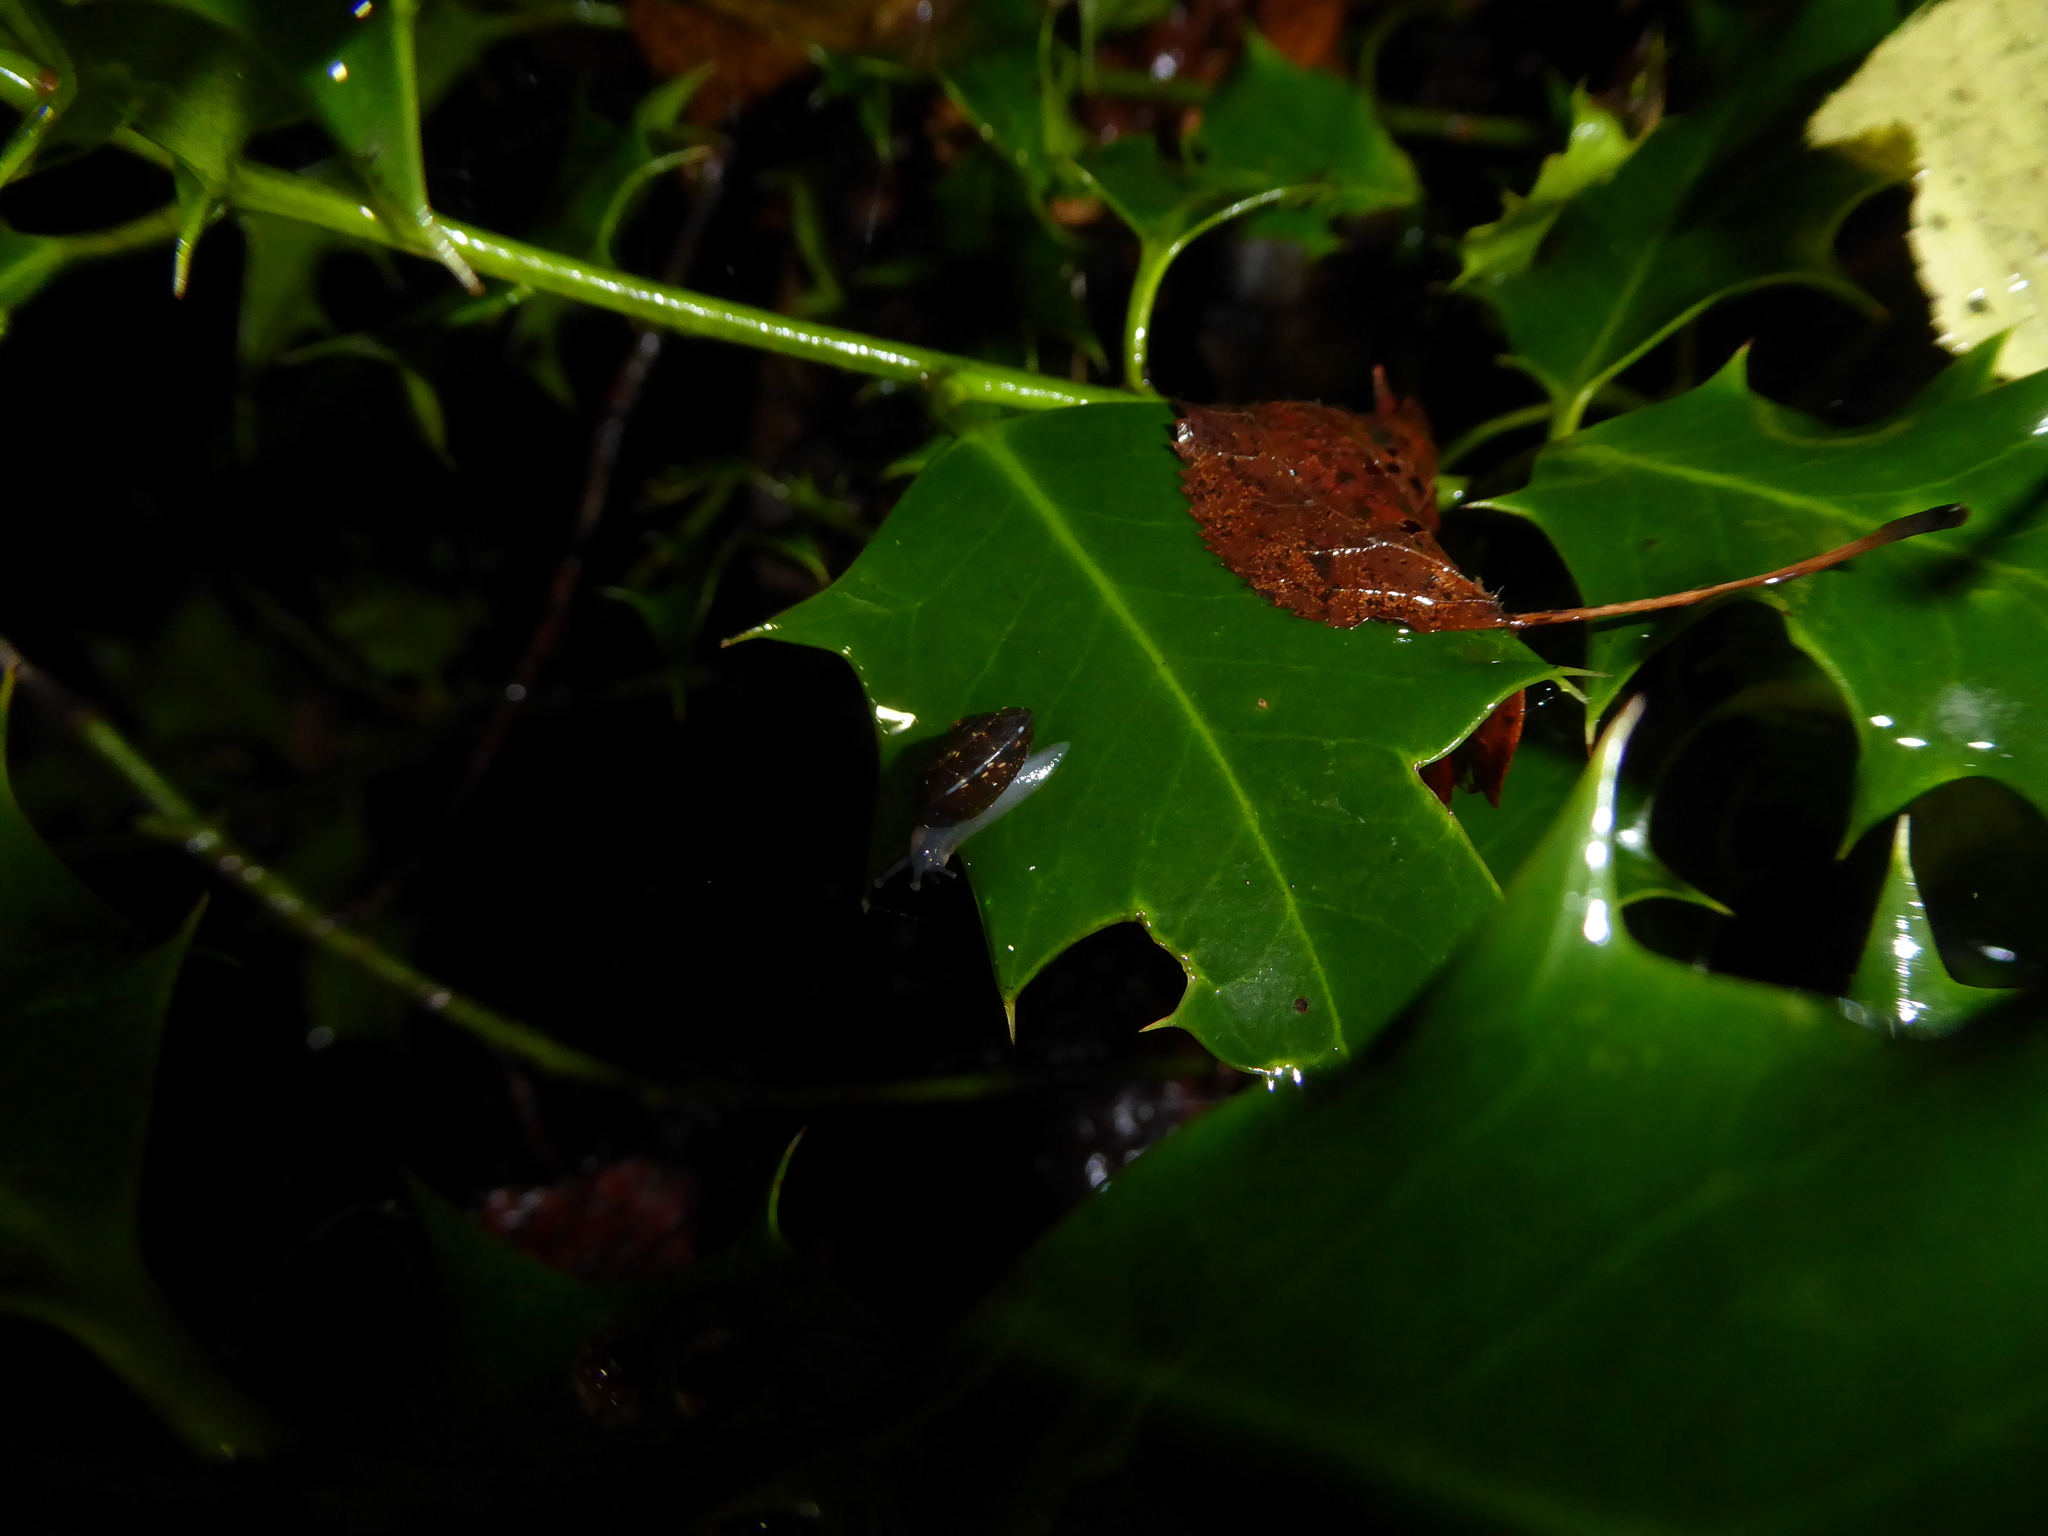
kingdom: Animalia
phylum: Mollusca
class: Gastropoda
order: Stylommatophora
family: Hygromiidae
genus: Hygromia
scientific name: Hygromia cinctella
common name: Girdled snail
